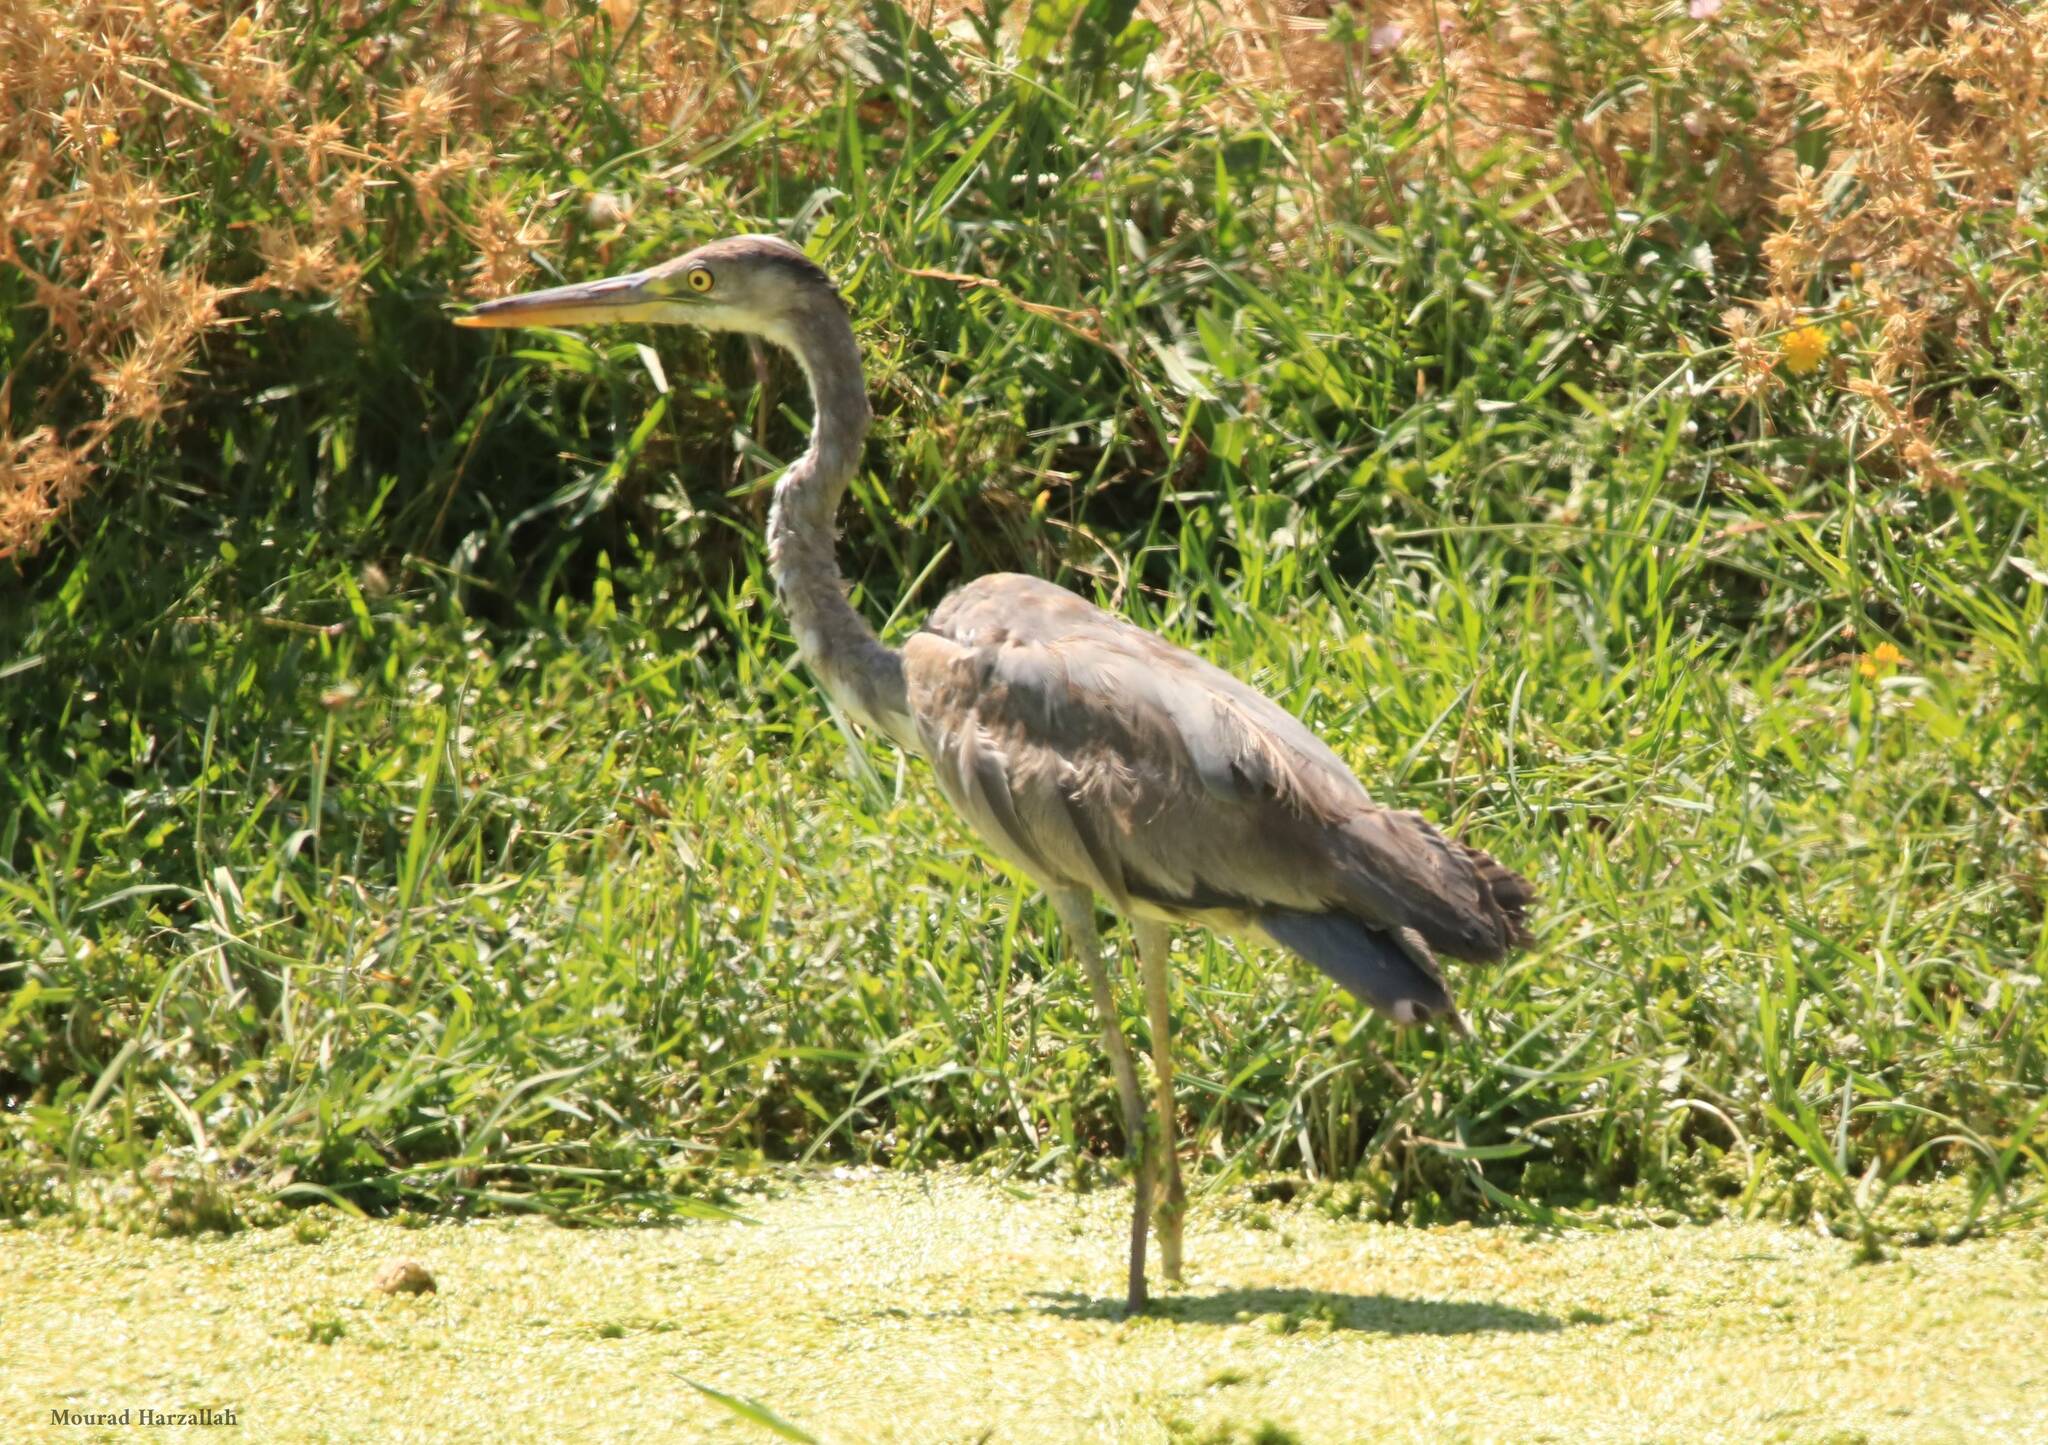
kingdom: Animalia
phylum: Chordata
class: Aves
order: Pelecaniformes
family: Ardeidae
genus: Ardea
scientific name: Ardea cinerea
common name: Grey heron
